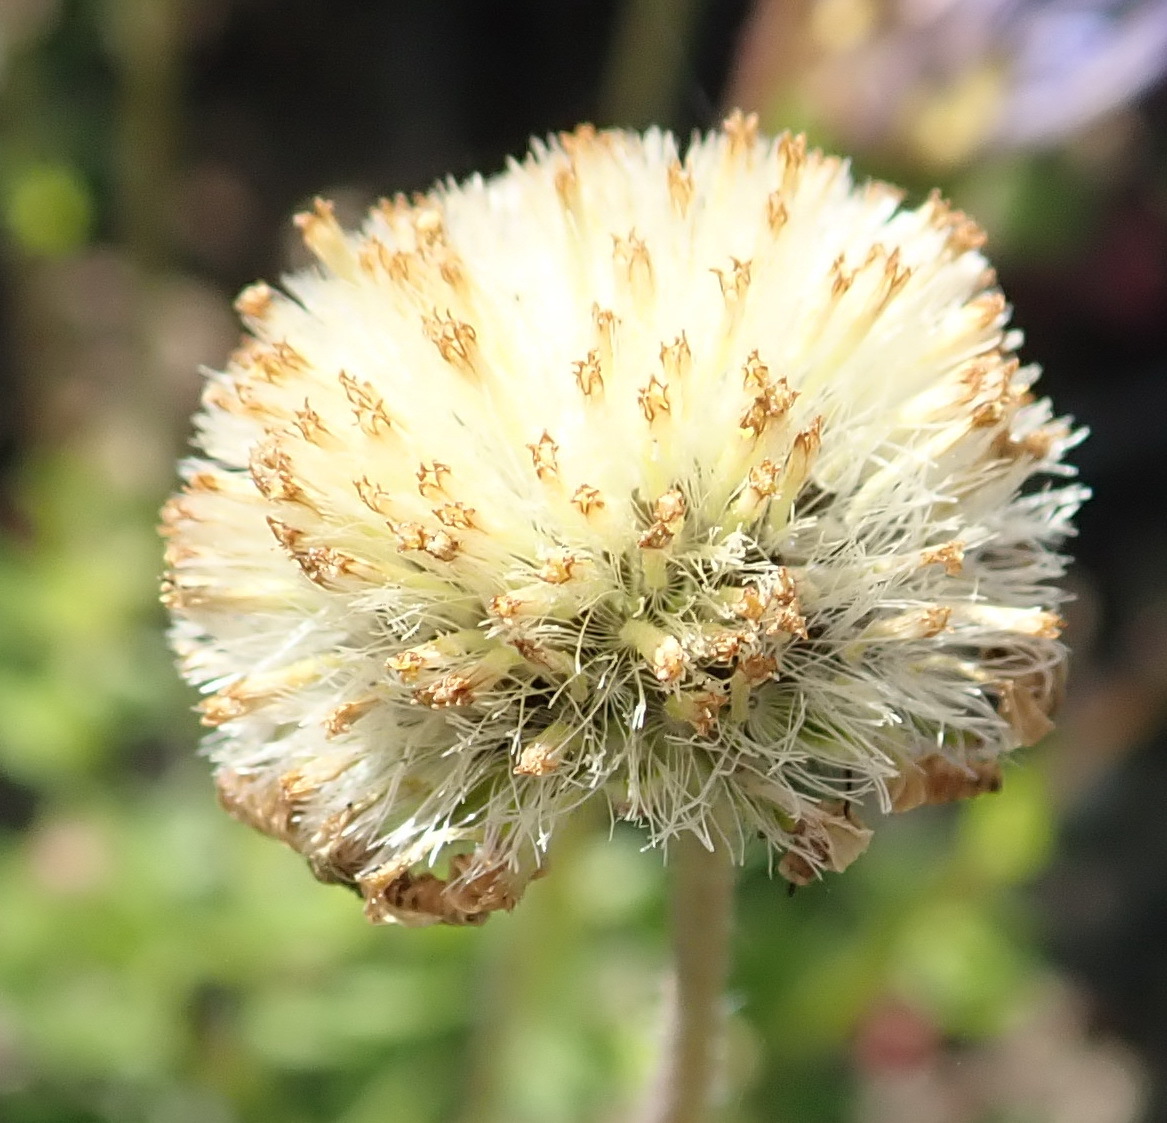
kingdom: Plantae
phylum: Tracheophyta
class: Magnoliopsida
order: Asterales
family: Asteraceae
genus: Felicia
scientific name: Felicia amoena
